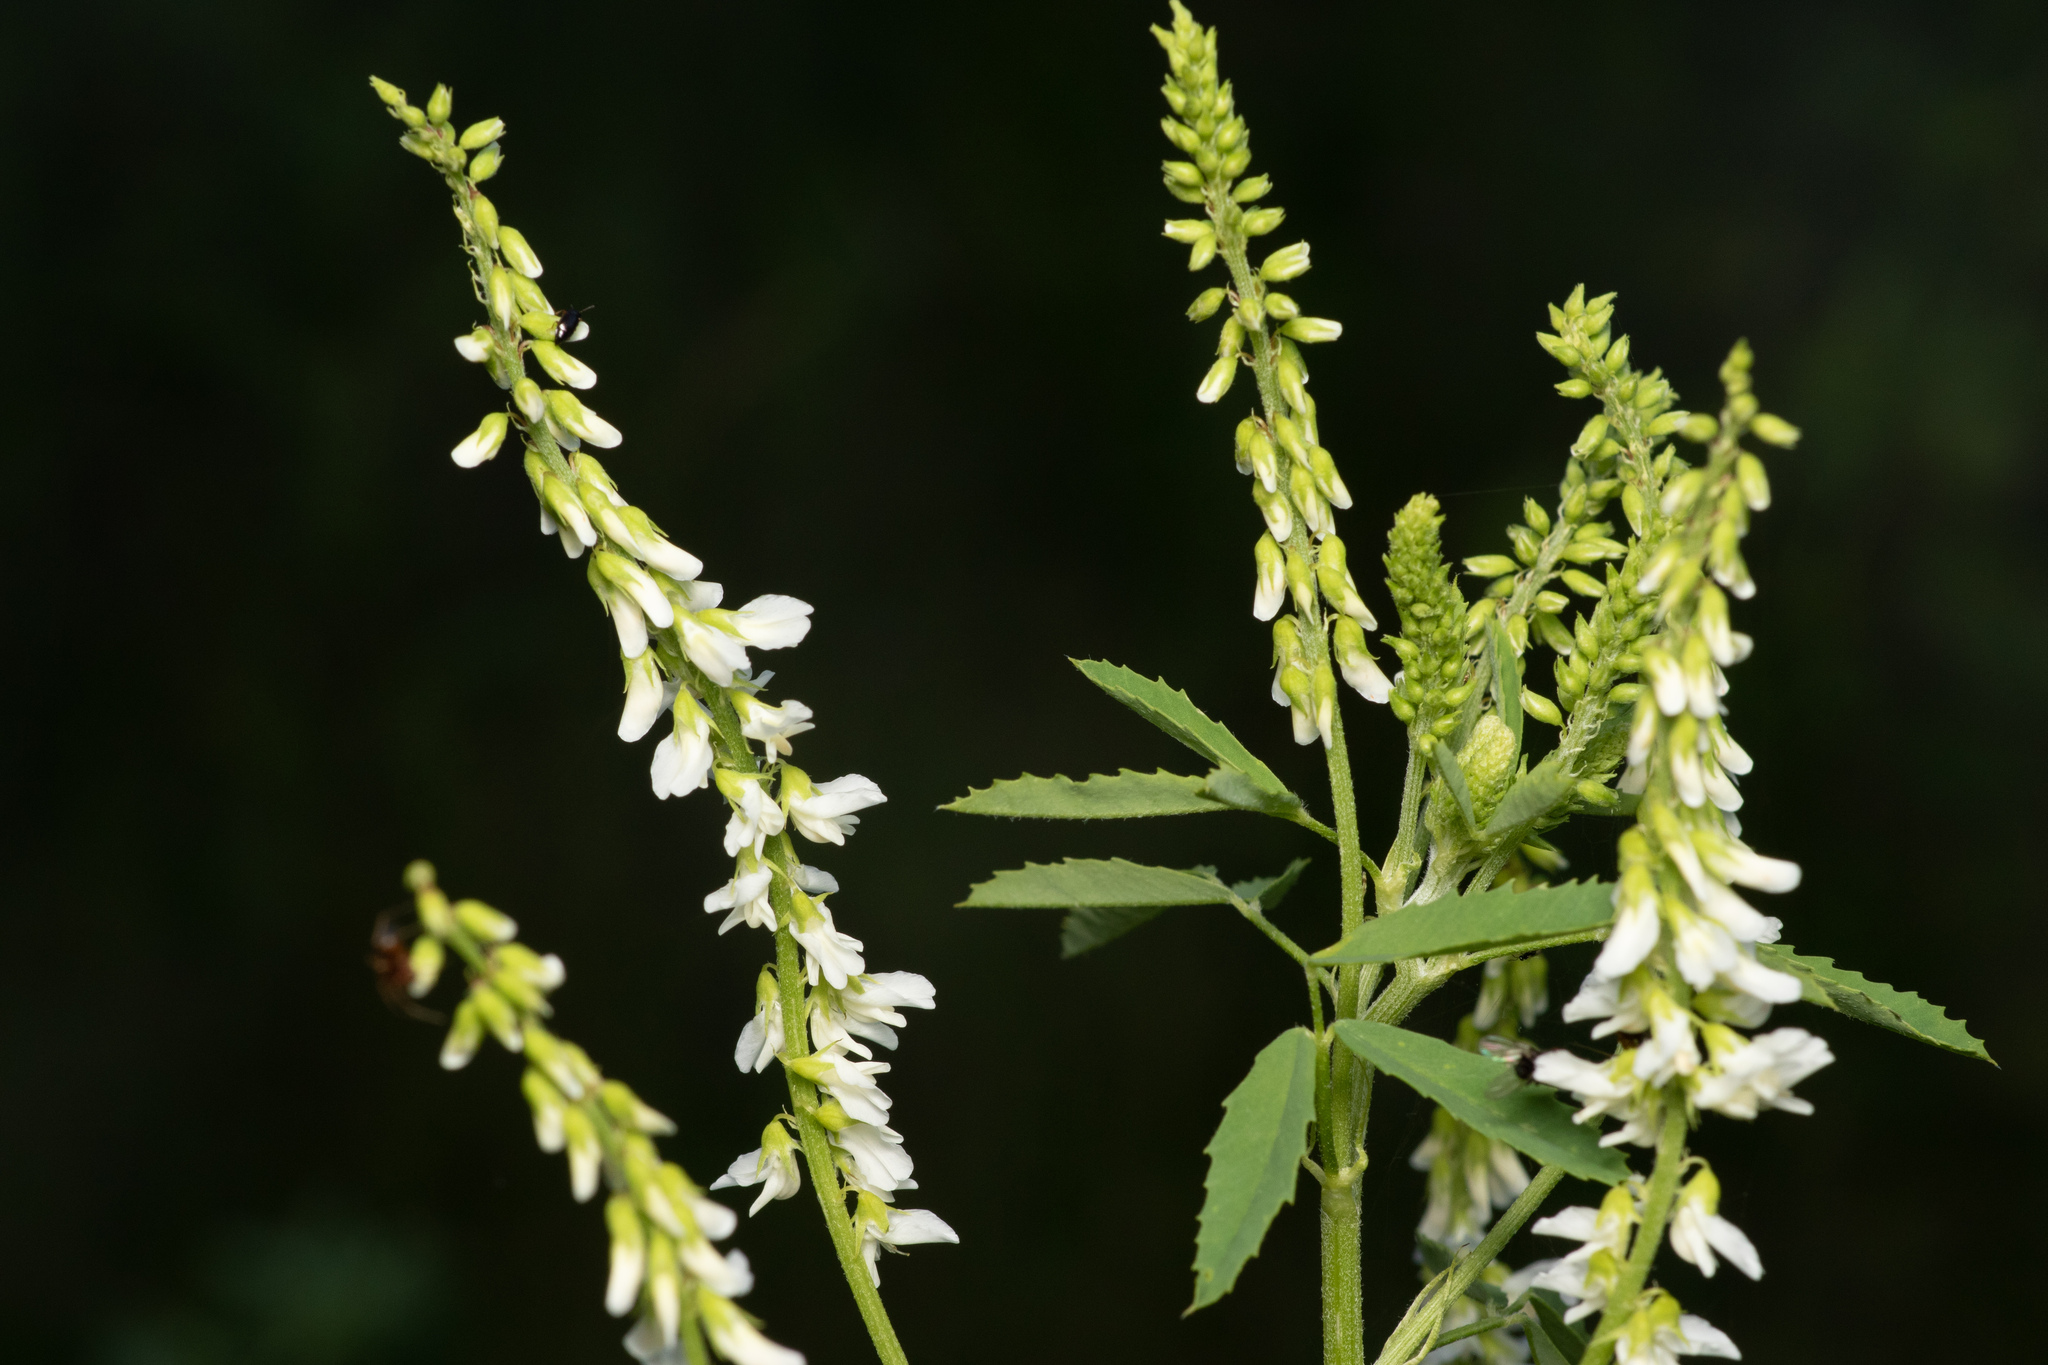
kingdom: Plantae
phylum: Tracheophyta
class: Magnoliopsida
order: Fabales
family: Fabaceae
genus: Melilotus
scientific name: Melilotus albus
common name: White melilot
